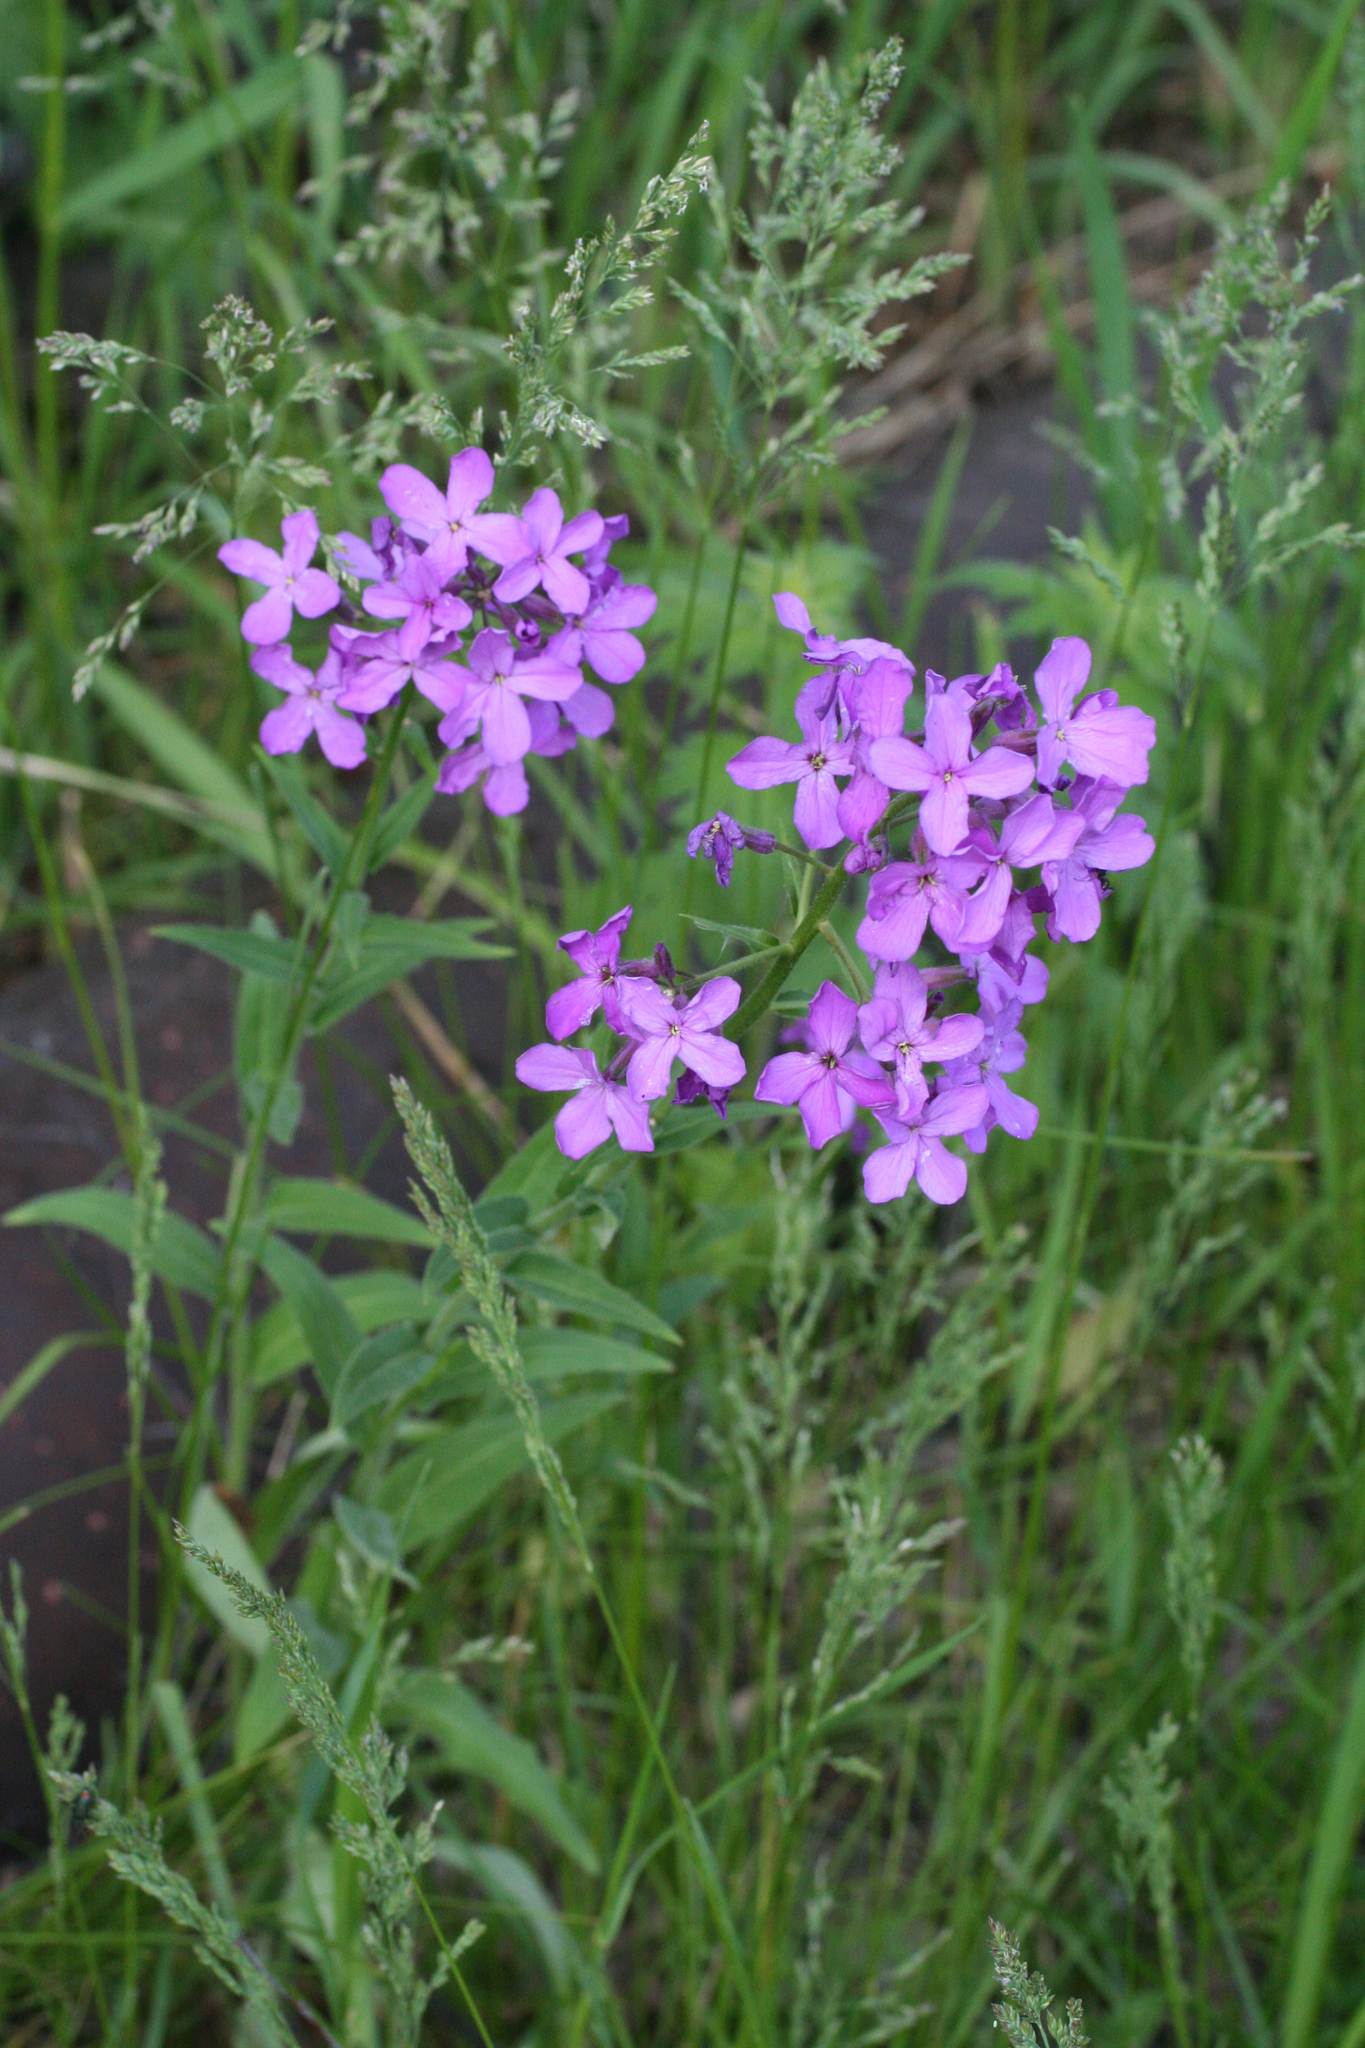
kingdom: Plantae
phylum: Tracheophyta
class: Magnoliopsida
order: Brassicales
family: Brassicaceae
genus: Hesperis
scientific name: Hesperis sibirica
